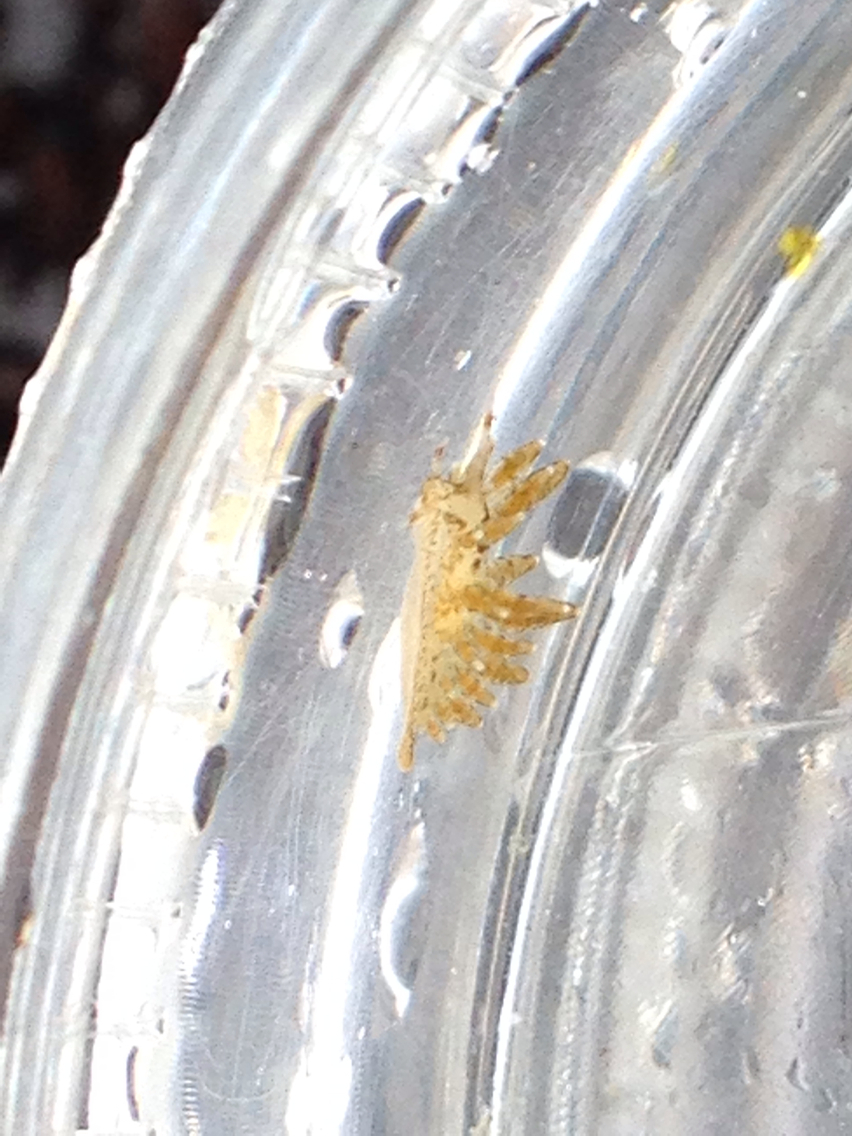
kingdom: Animalia
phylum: Mollusca
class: Gastropoda
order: Nudibranchia
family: Eubranchidae
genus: Eubranchus
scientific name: Eubranchus rustyus
